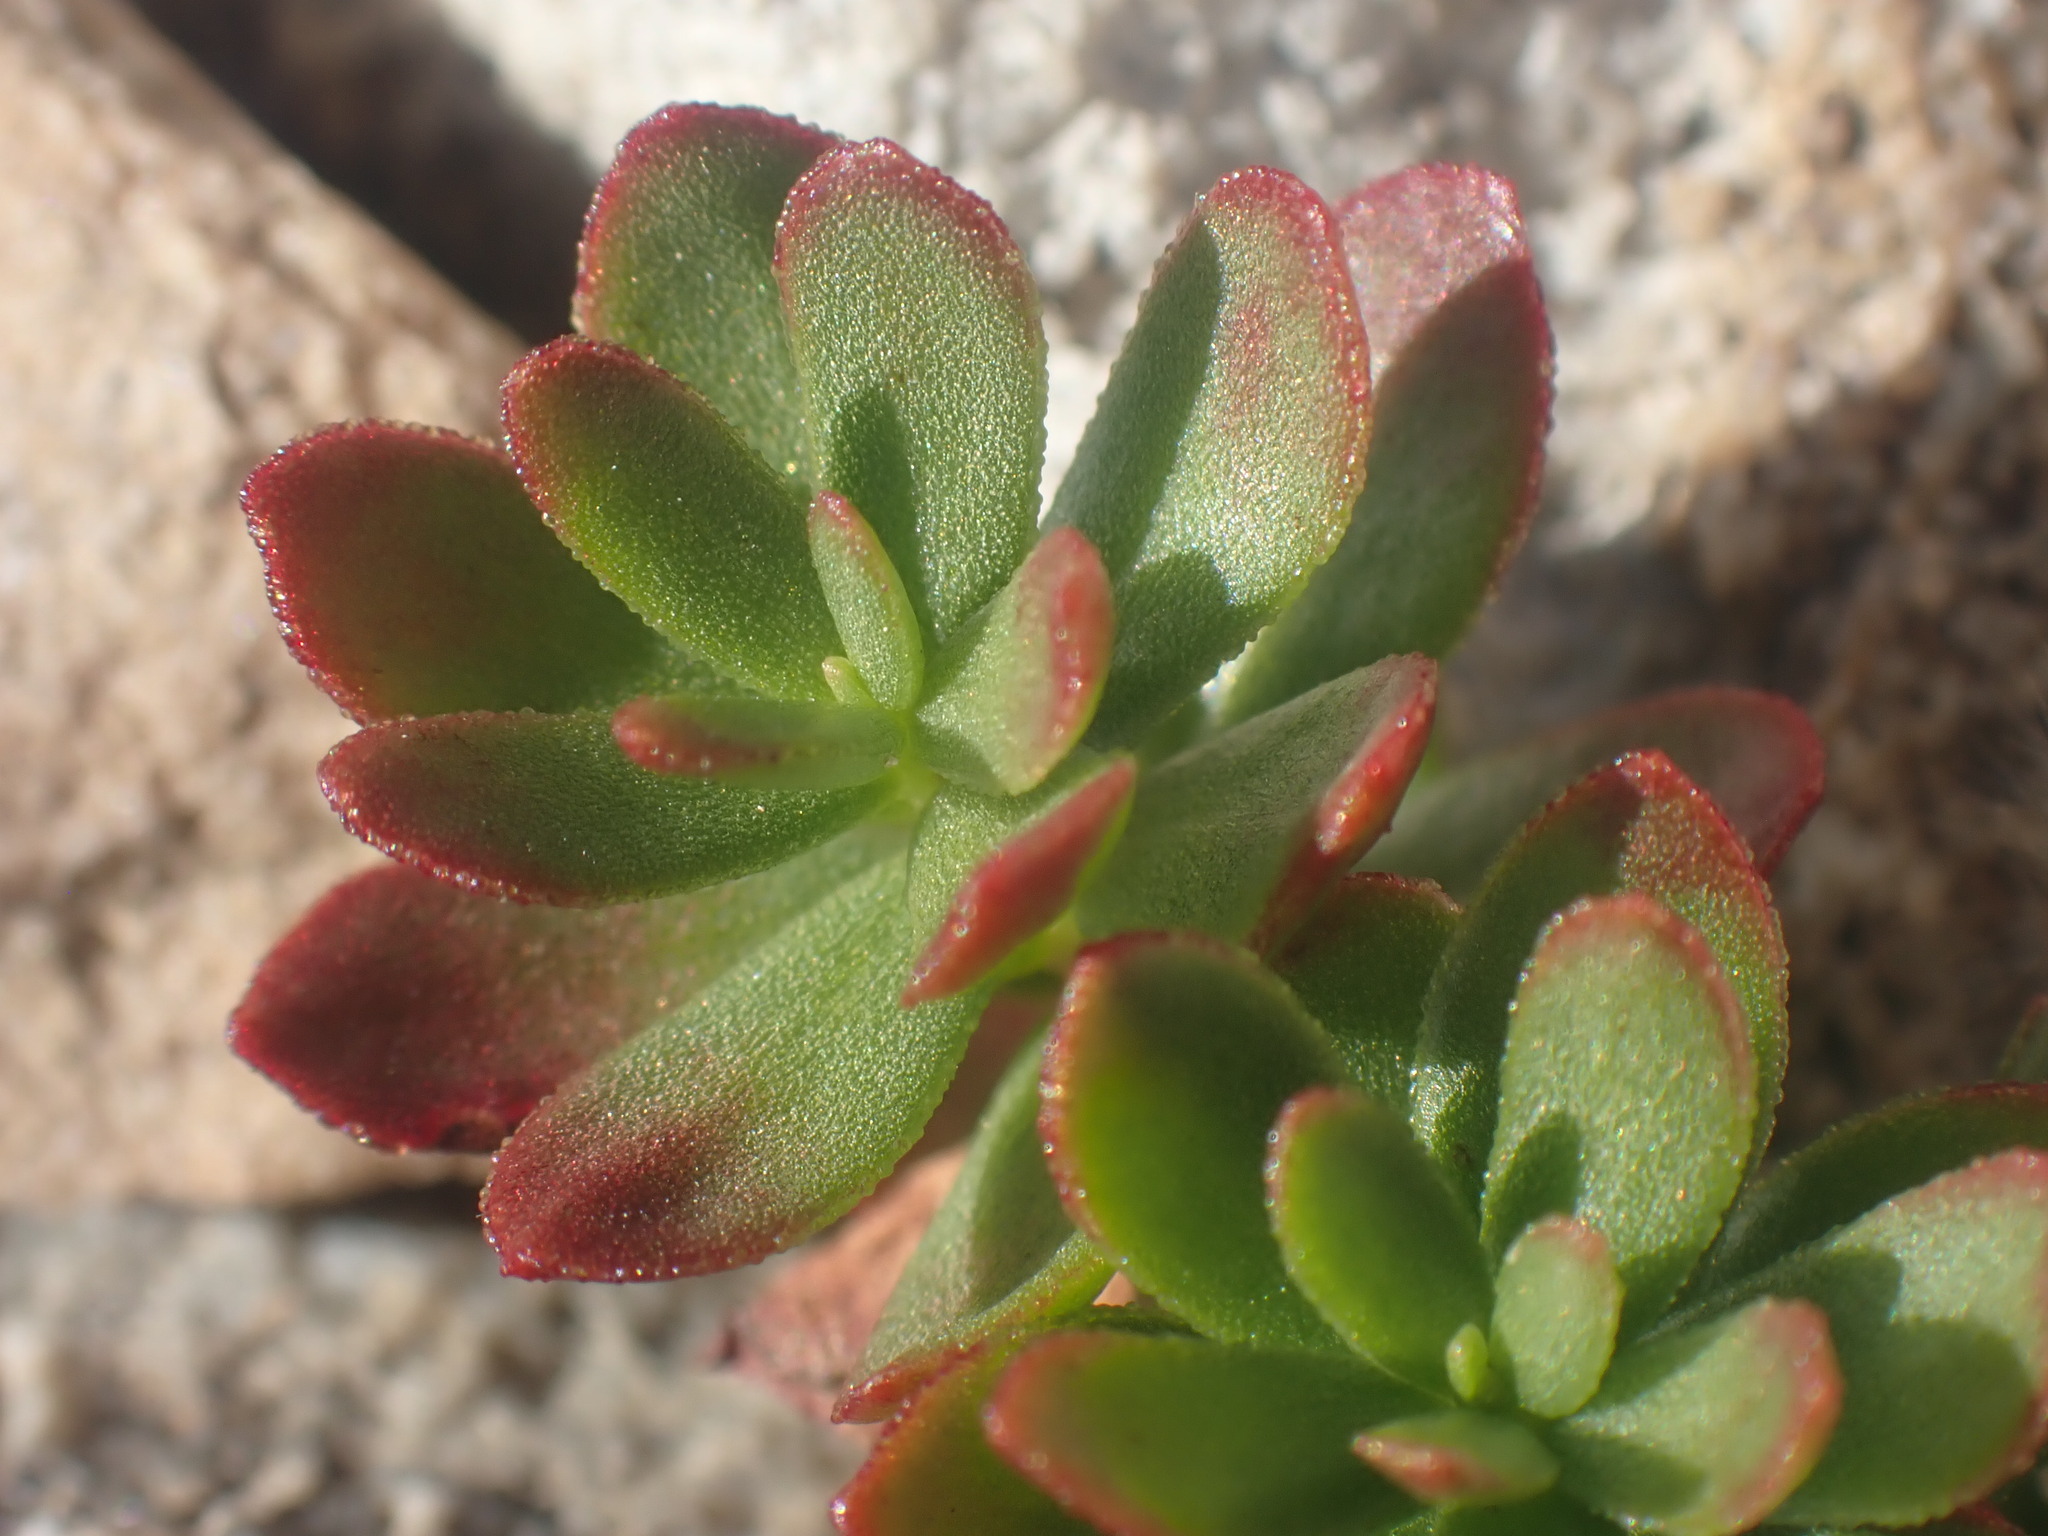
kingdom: Plantae
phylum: Tracheophyta
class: Magnoliopsida
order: Saxifragales
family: Crassulaceae
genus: Rhodiola
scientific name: Rhodiola integrifolia
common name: Western roseroot
